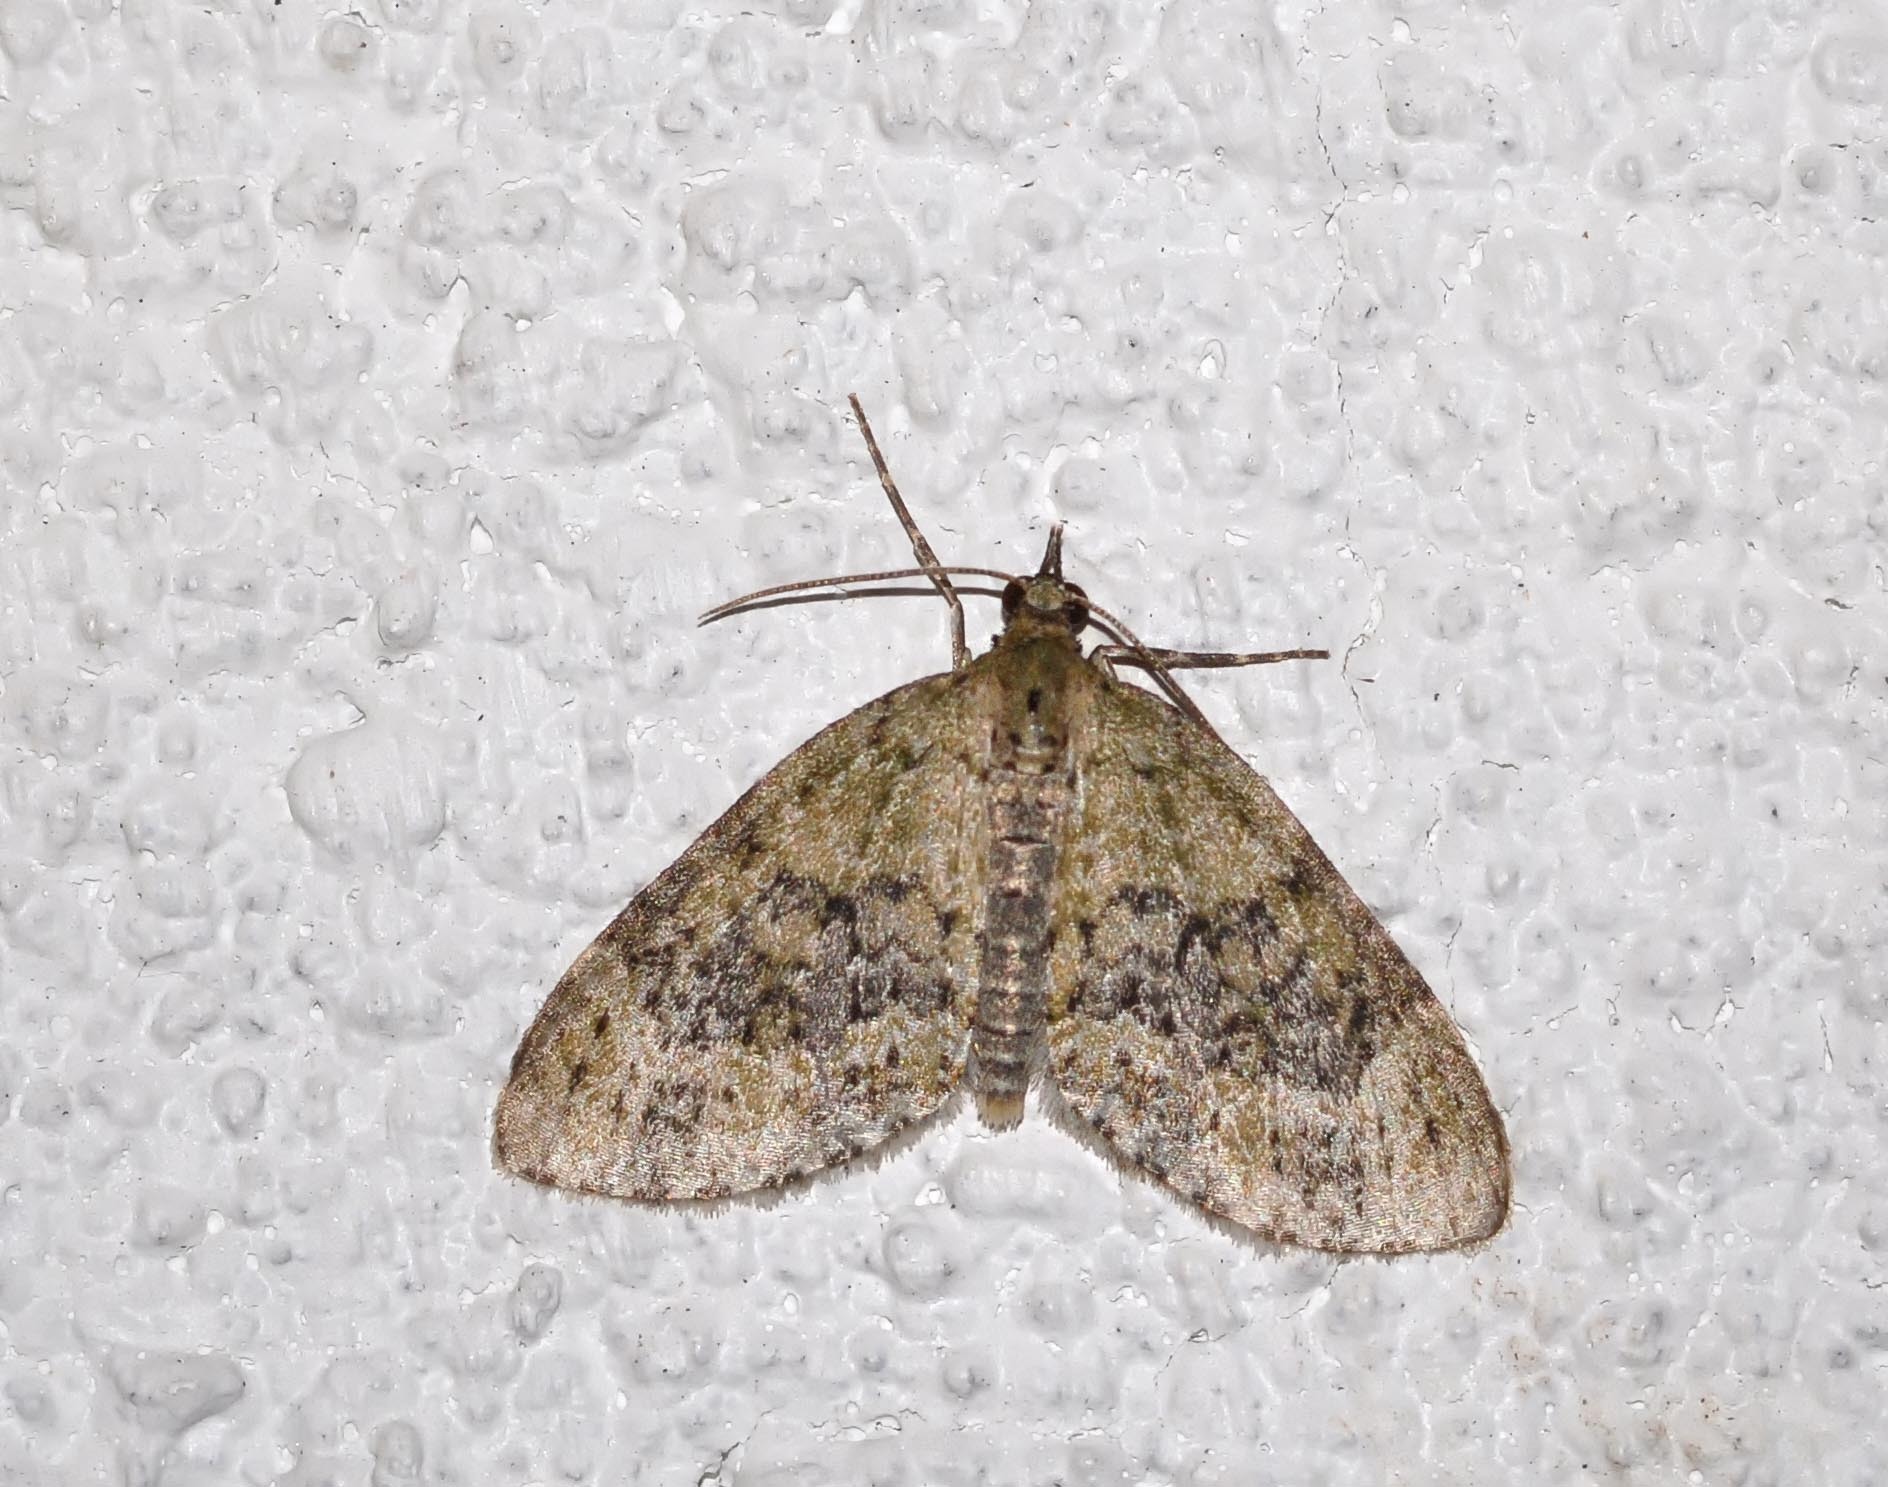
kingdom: Animalia
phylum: Arthropoda
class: Insecta
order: Lepidoptera
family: Geometridae
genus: Acasis
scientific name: Acasis viretata
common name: Yellow-barred brindle
